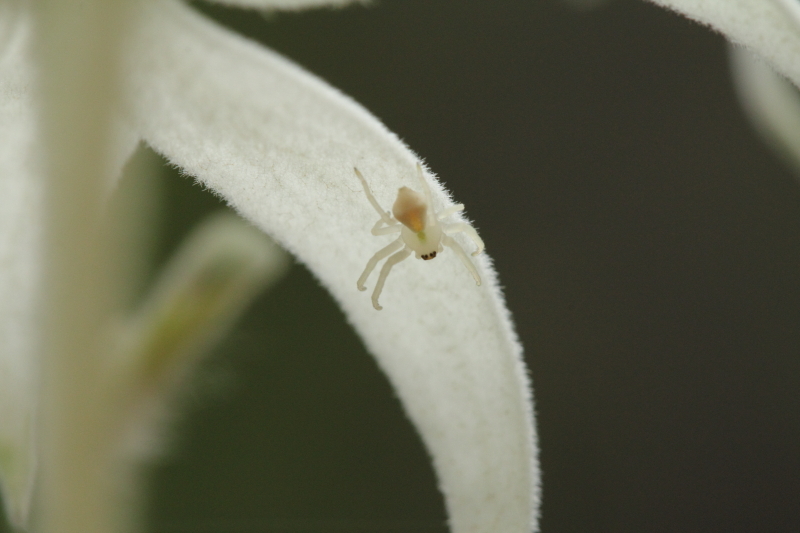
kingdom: Animalia
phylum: Arthropoda
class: Arachnida
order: Araneae
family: Thomisidae
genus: Sidymella
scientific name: Sidymella rubrosignata
